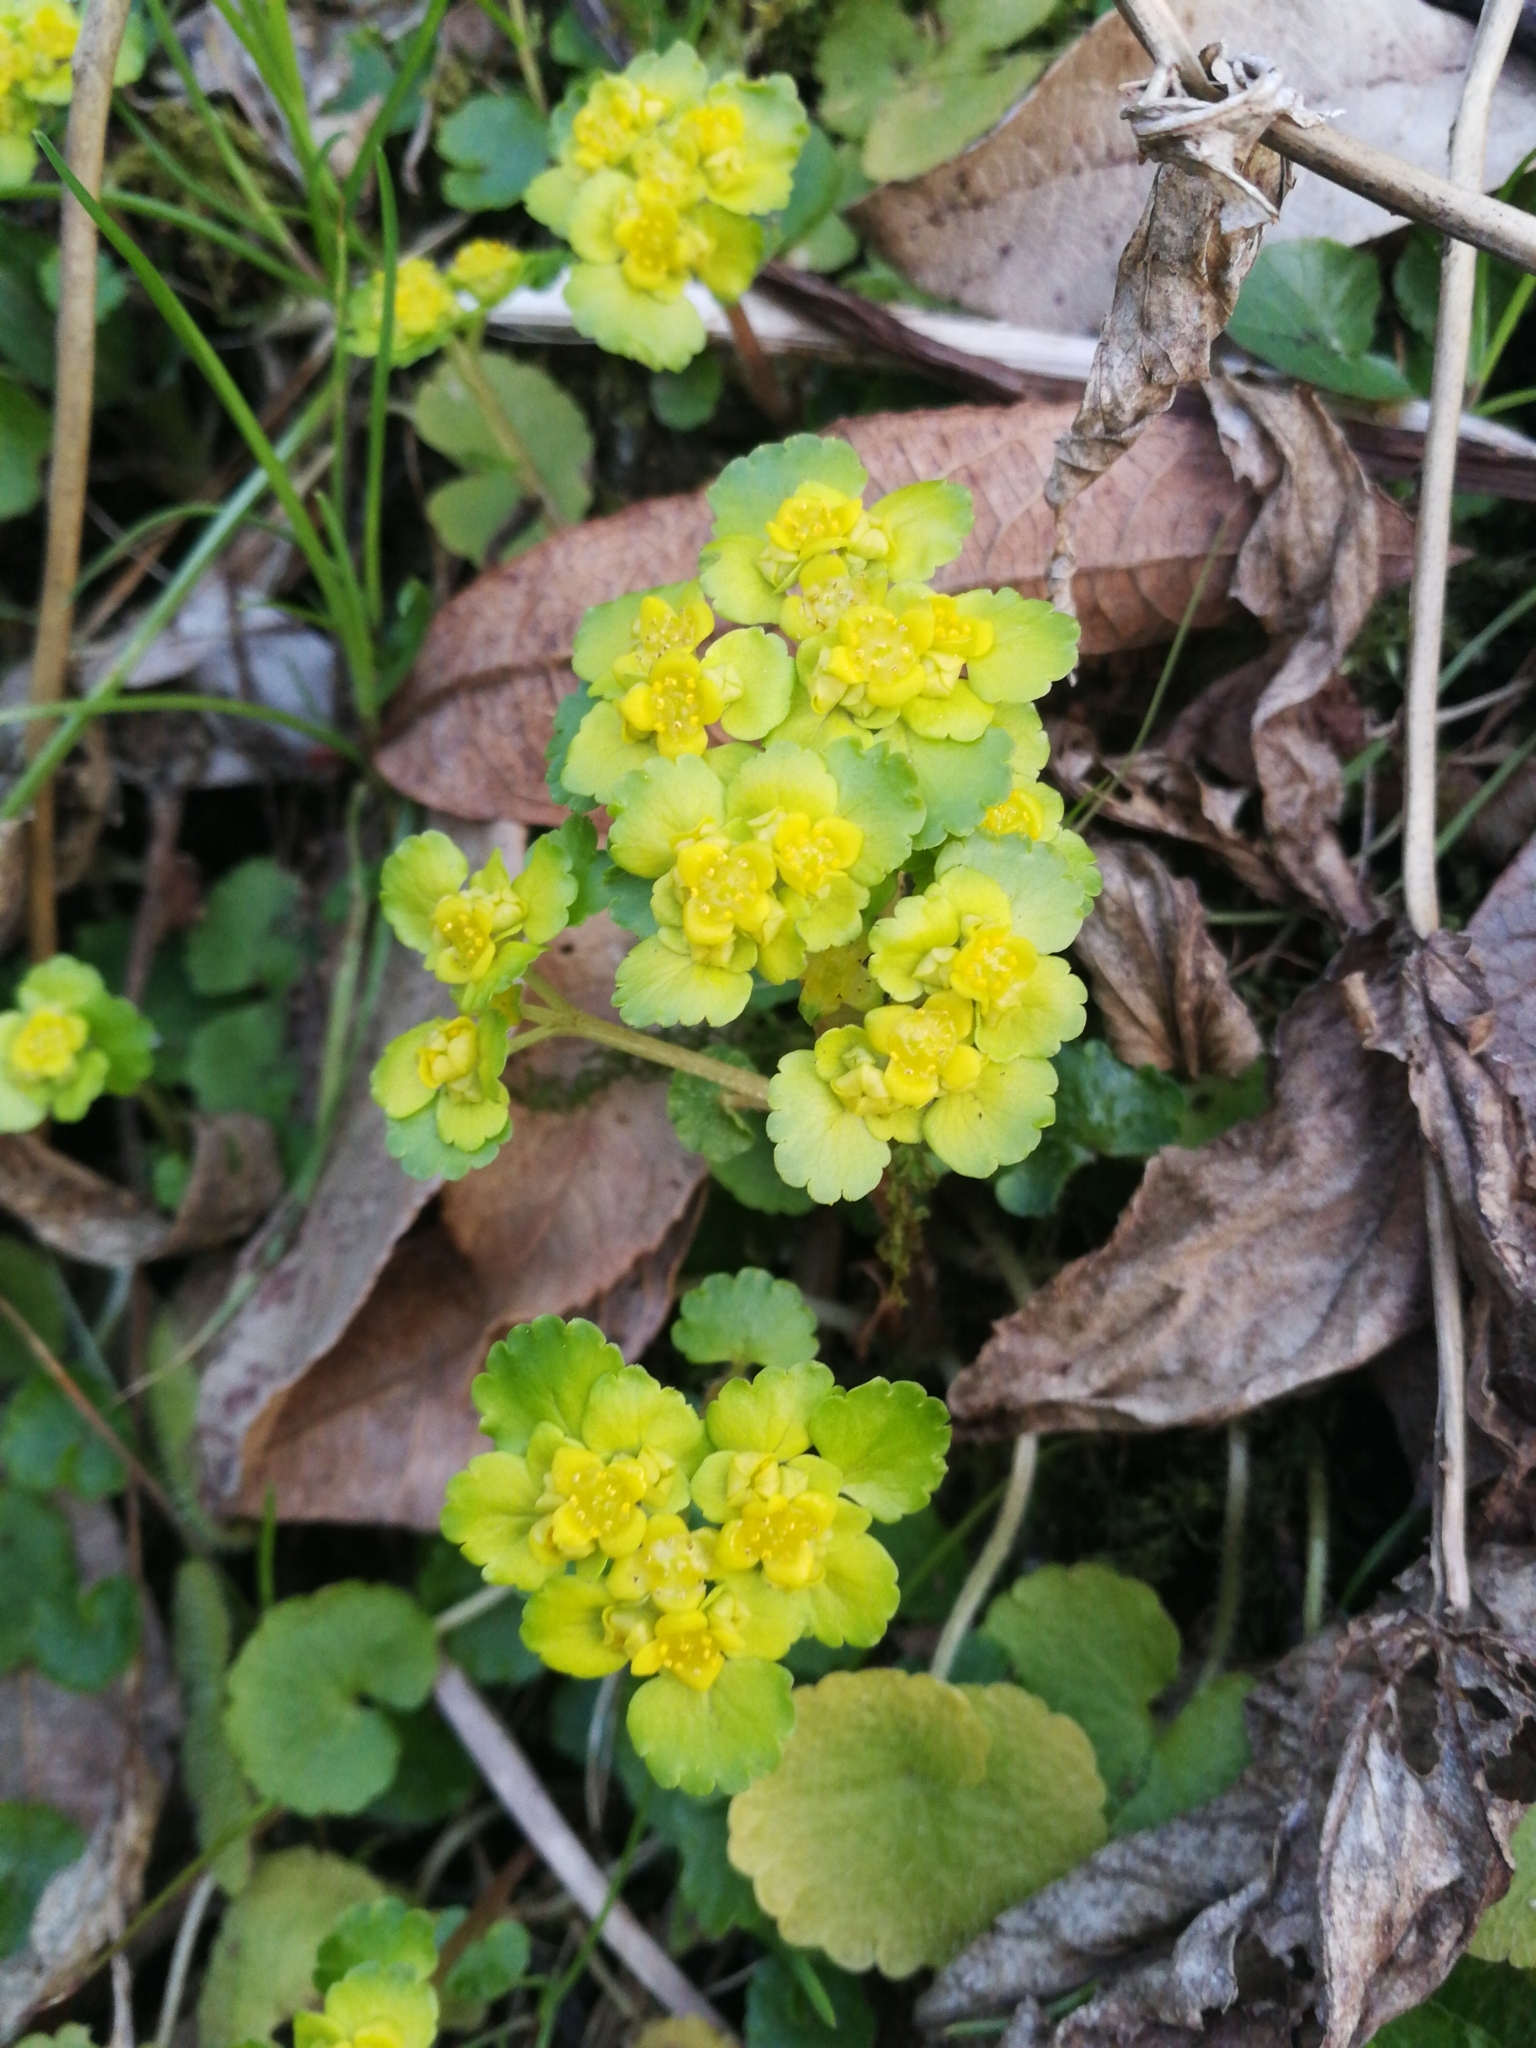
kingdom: Plantae
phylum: Tracheophyta
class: Magnoliopsida
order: Saxifragales
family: Saxifragaceae
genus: Chrysosplenium
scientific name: Chrysosplenium alternifolium
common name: Alternate-leaved golden-saxifrage
